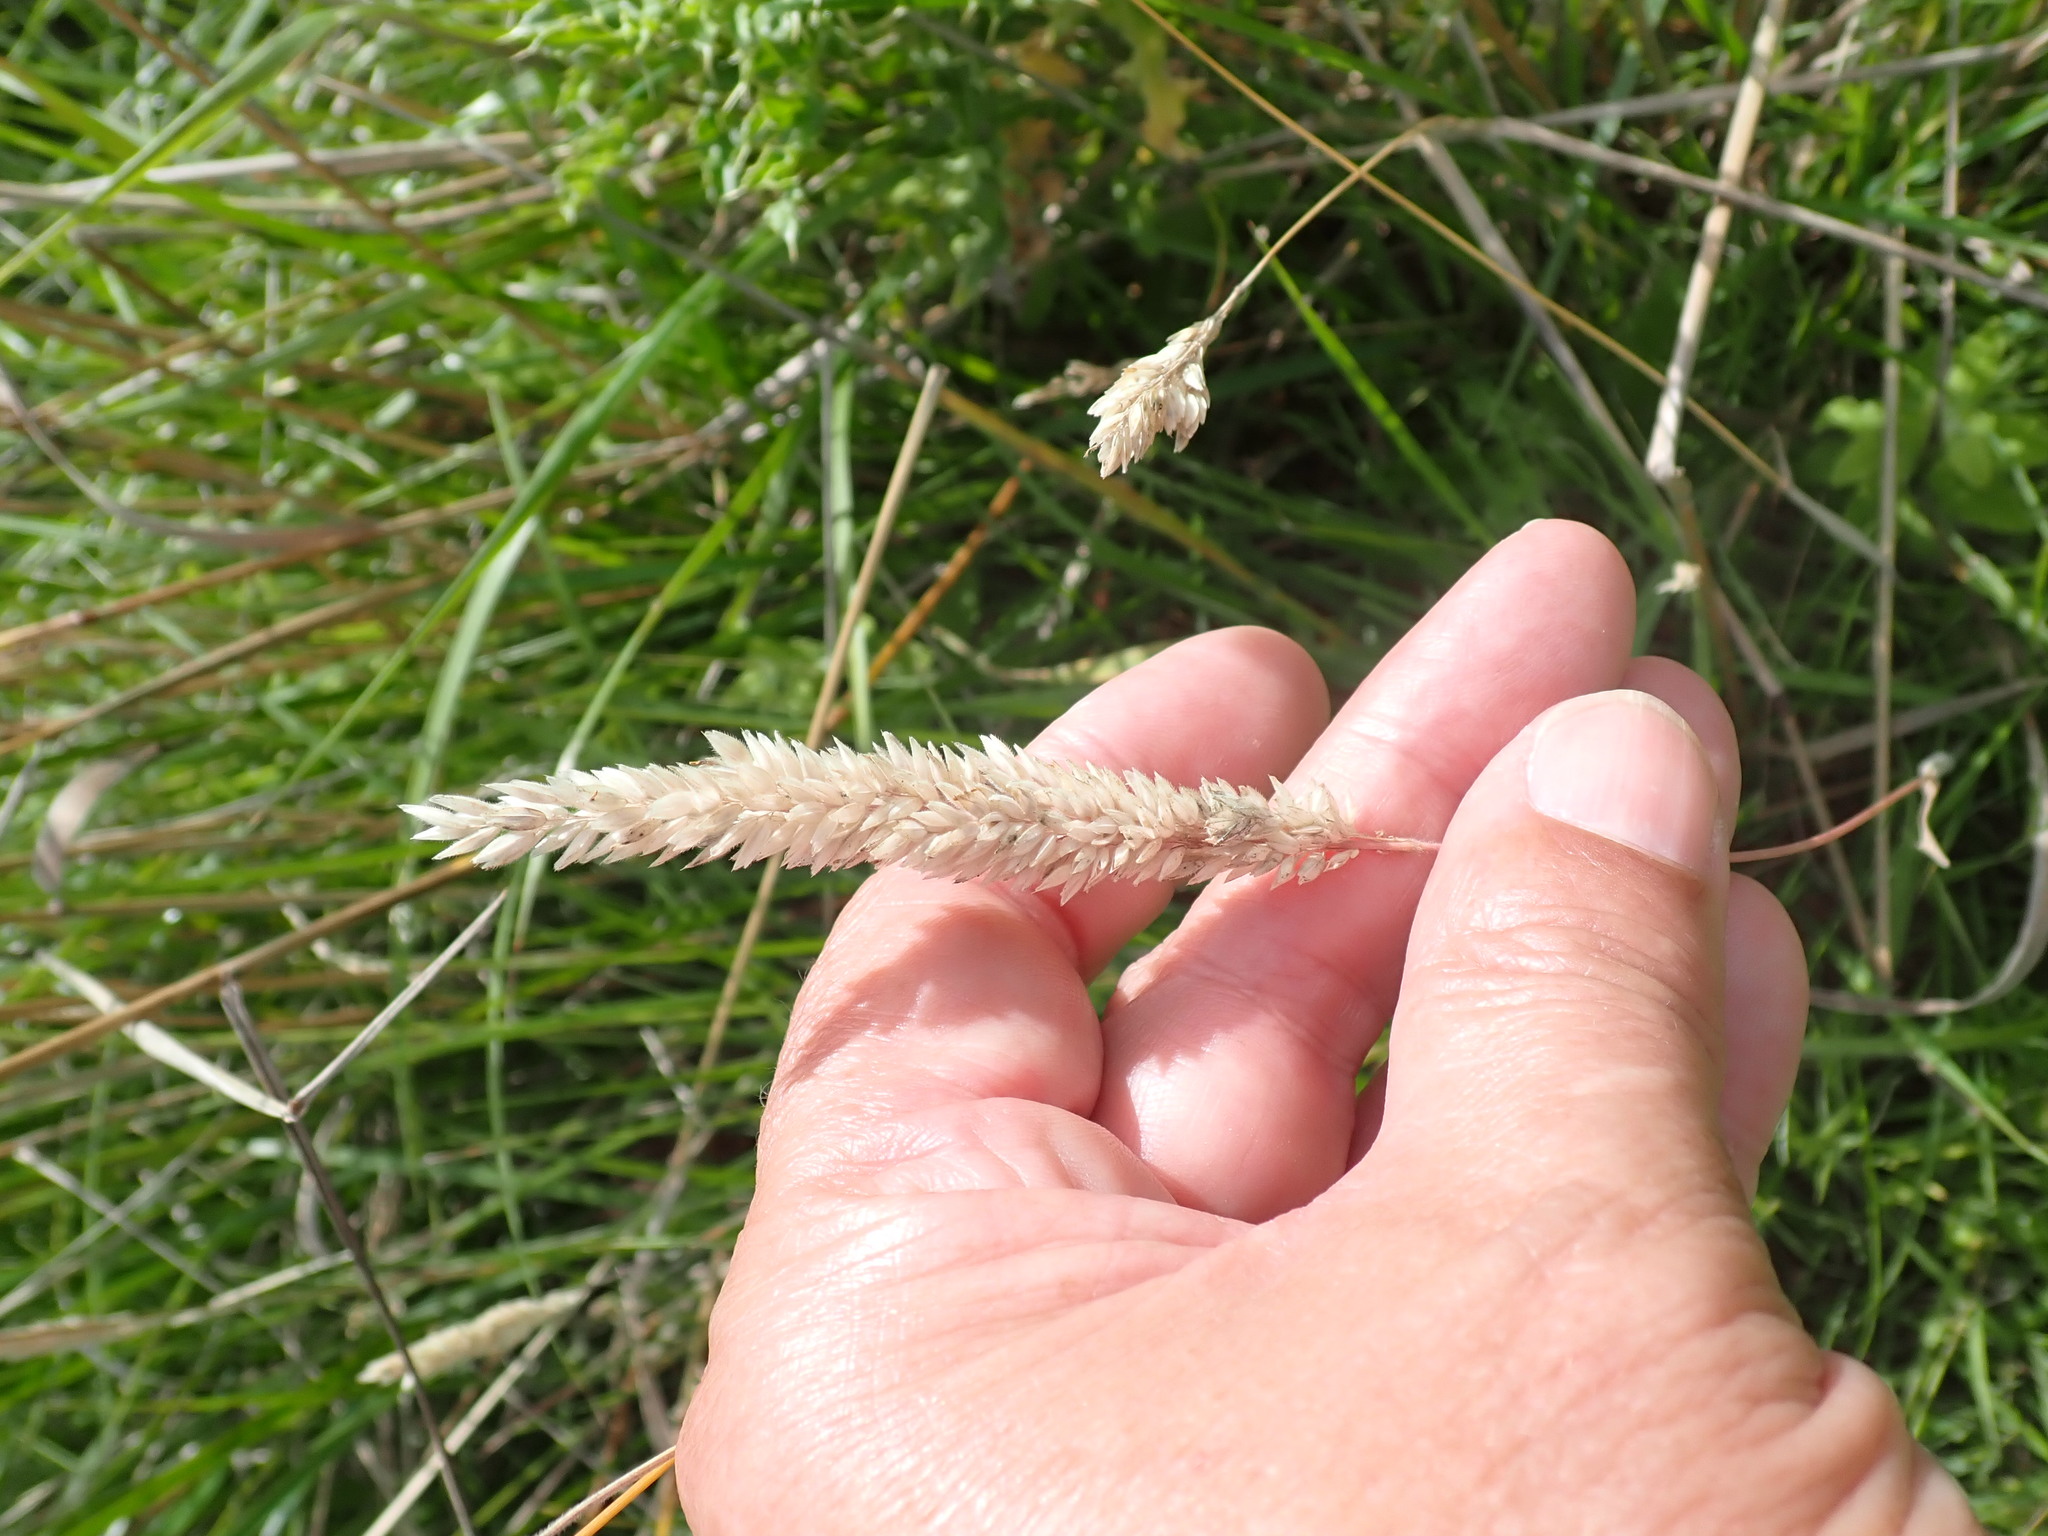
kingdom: Plantae
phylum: Tracheophyta
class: Liliopsida
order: Poales
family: Poaceae
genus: Holcus
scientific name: Holcus lanatus
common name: Yorkshire-fog
